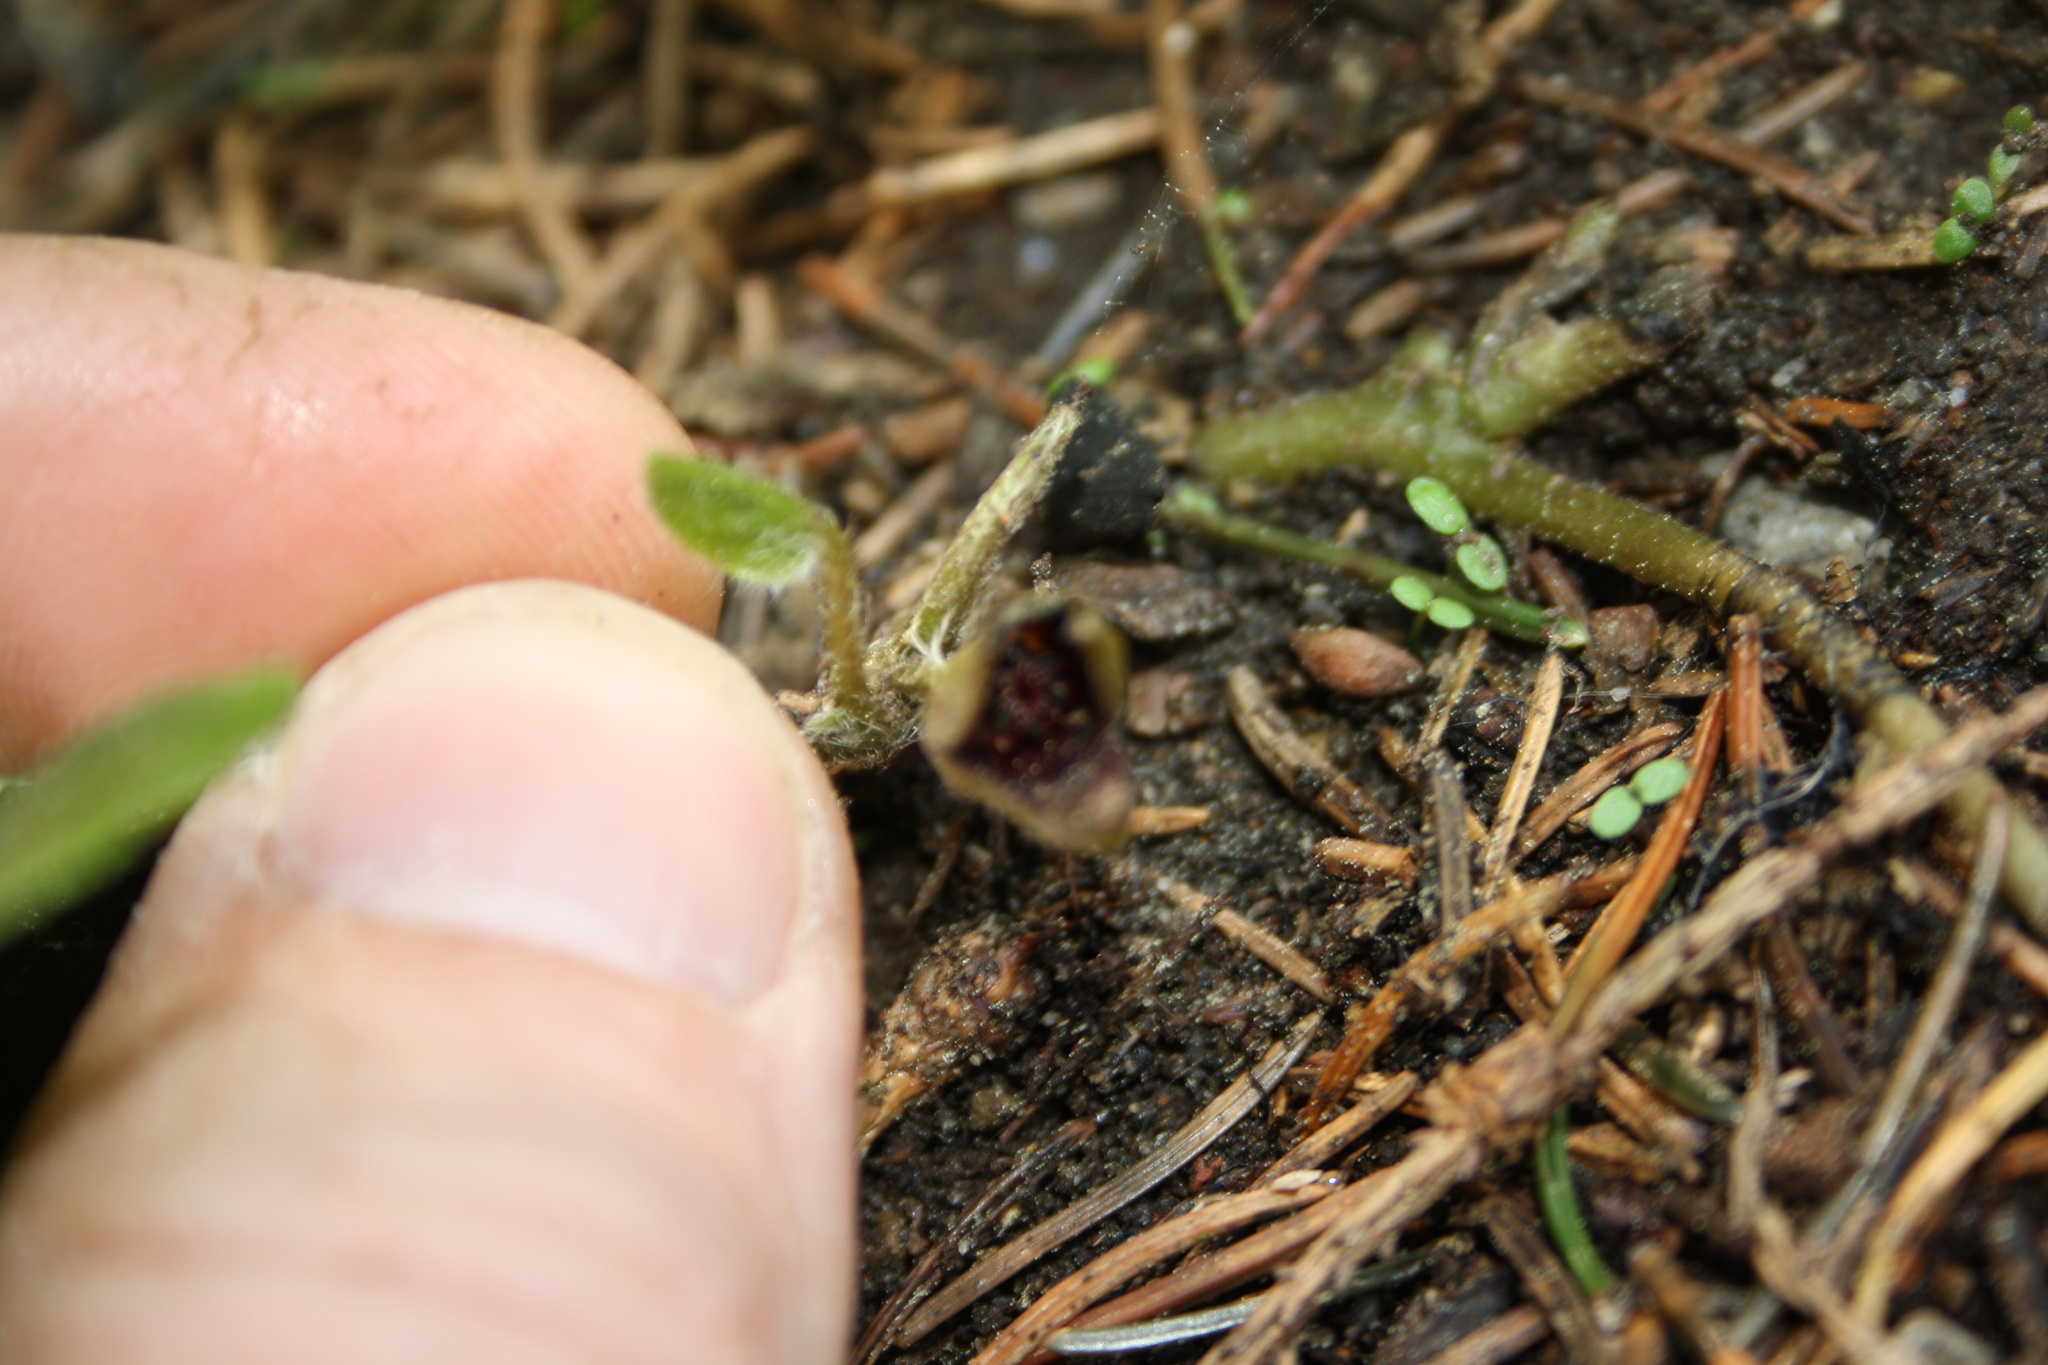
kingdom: Plantae
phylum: Tracheophyta
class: Magnoliopsida
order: Piperales
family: Aristolochiaceae
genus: Asarum
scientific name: Asarum europaeum
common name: Asarabacca
